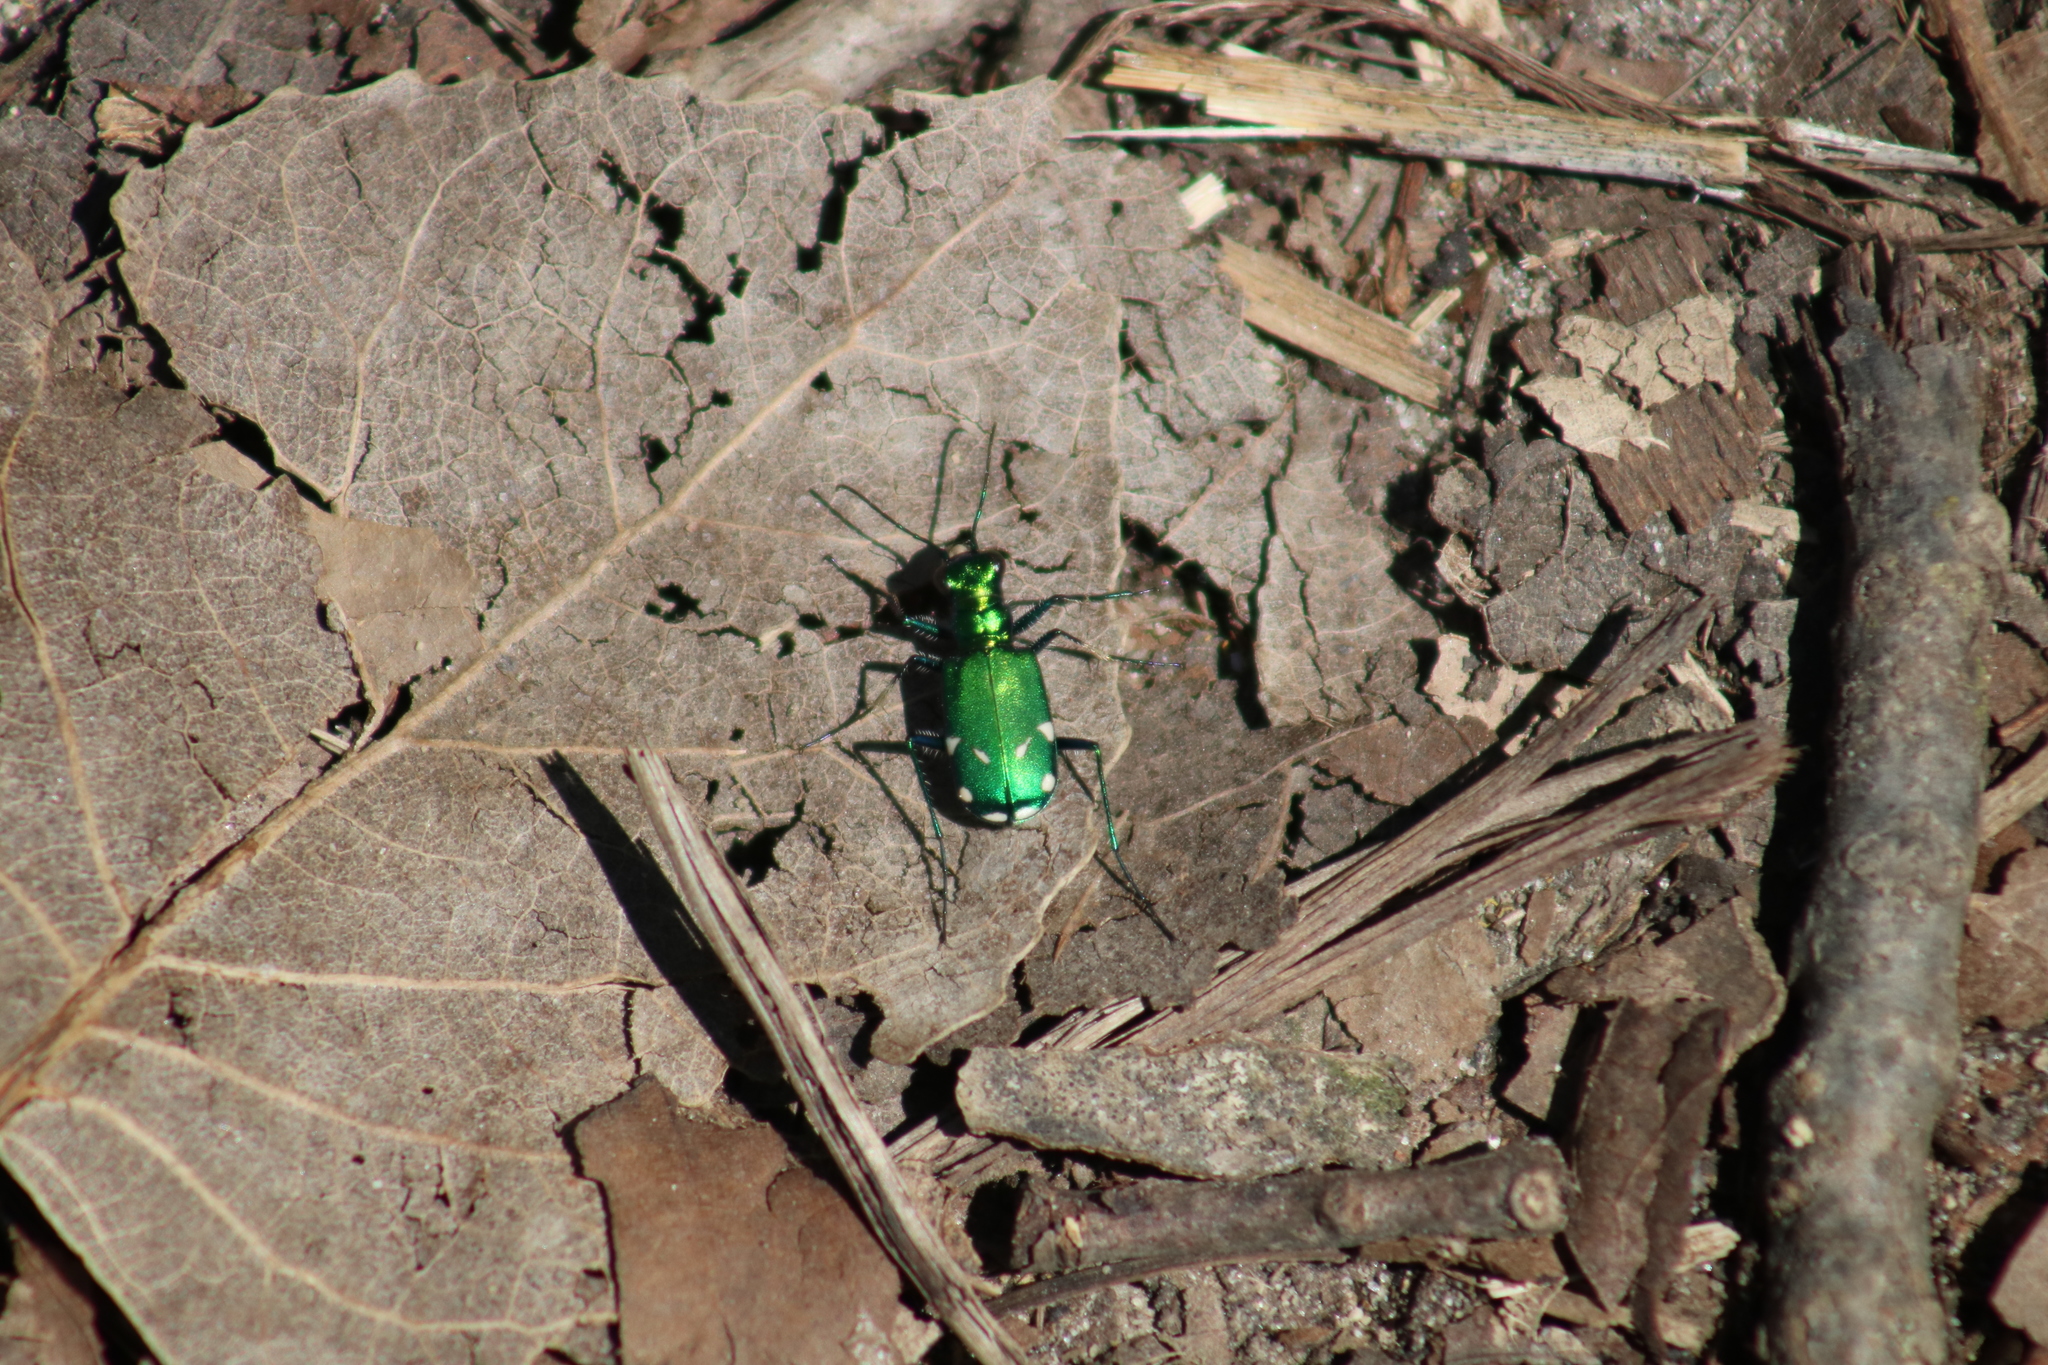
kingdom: Animalia
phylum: Arthropoda
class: Insecta
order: Coleoptera
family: Carabidae
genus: Cicindela
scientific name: Cicindela sexguttata
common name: Six-spotted tiger beetle
